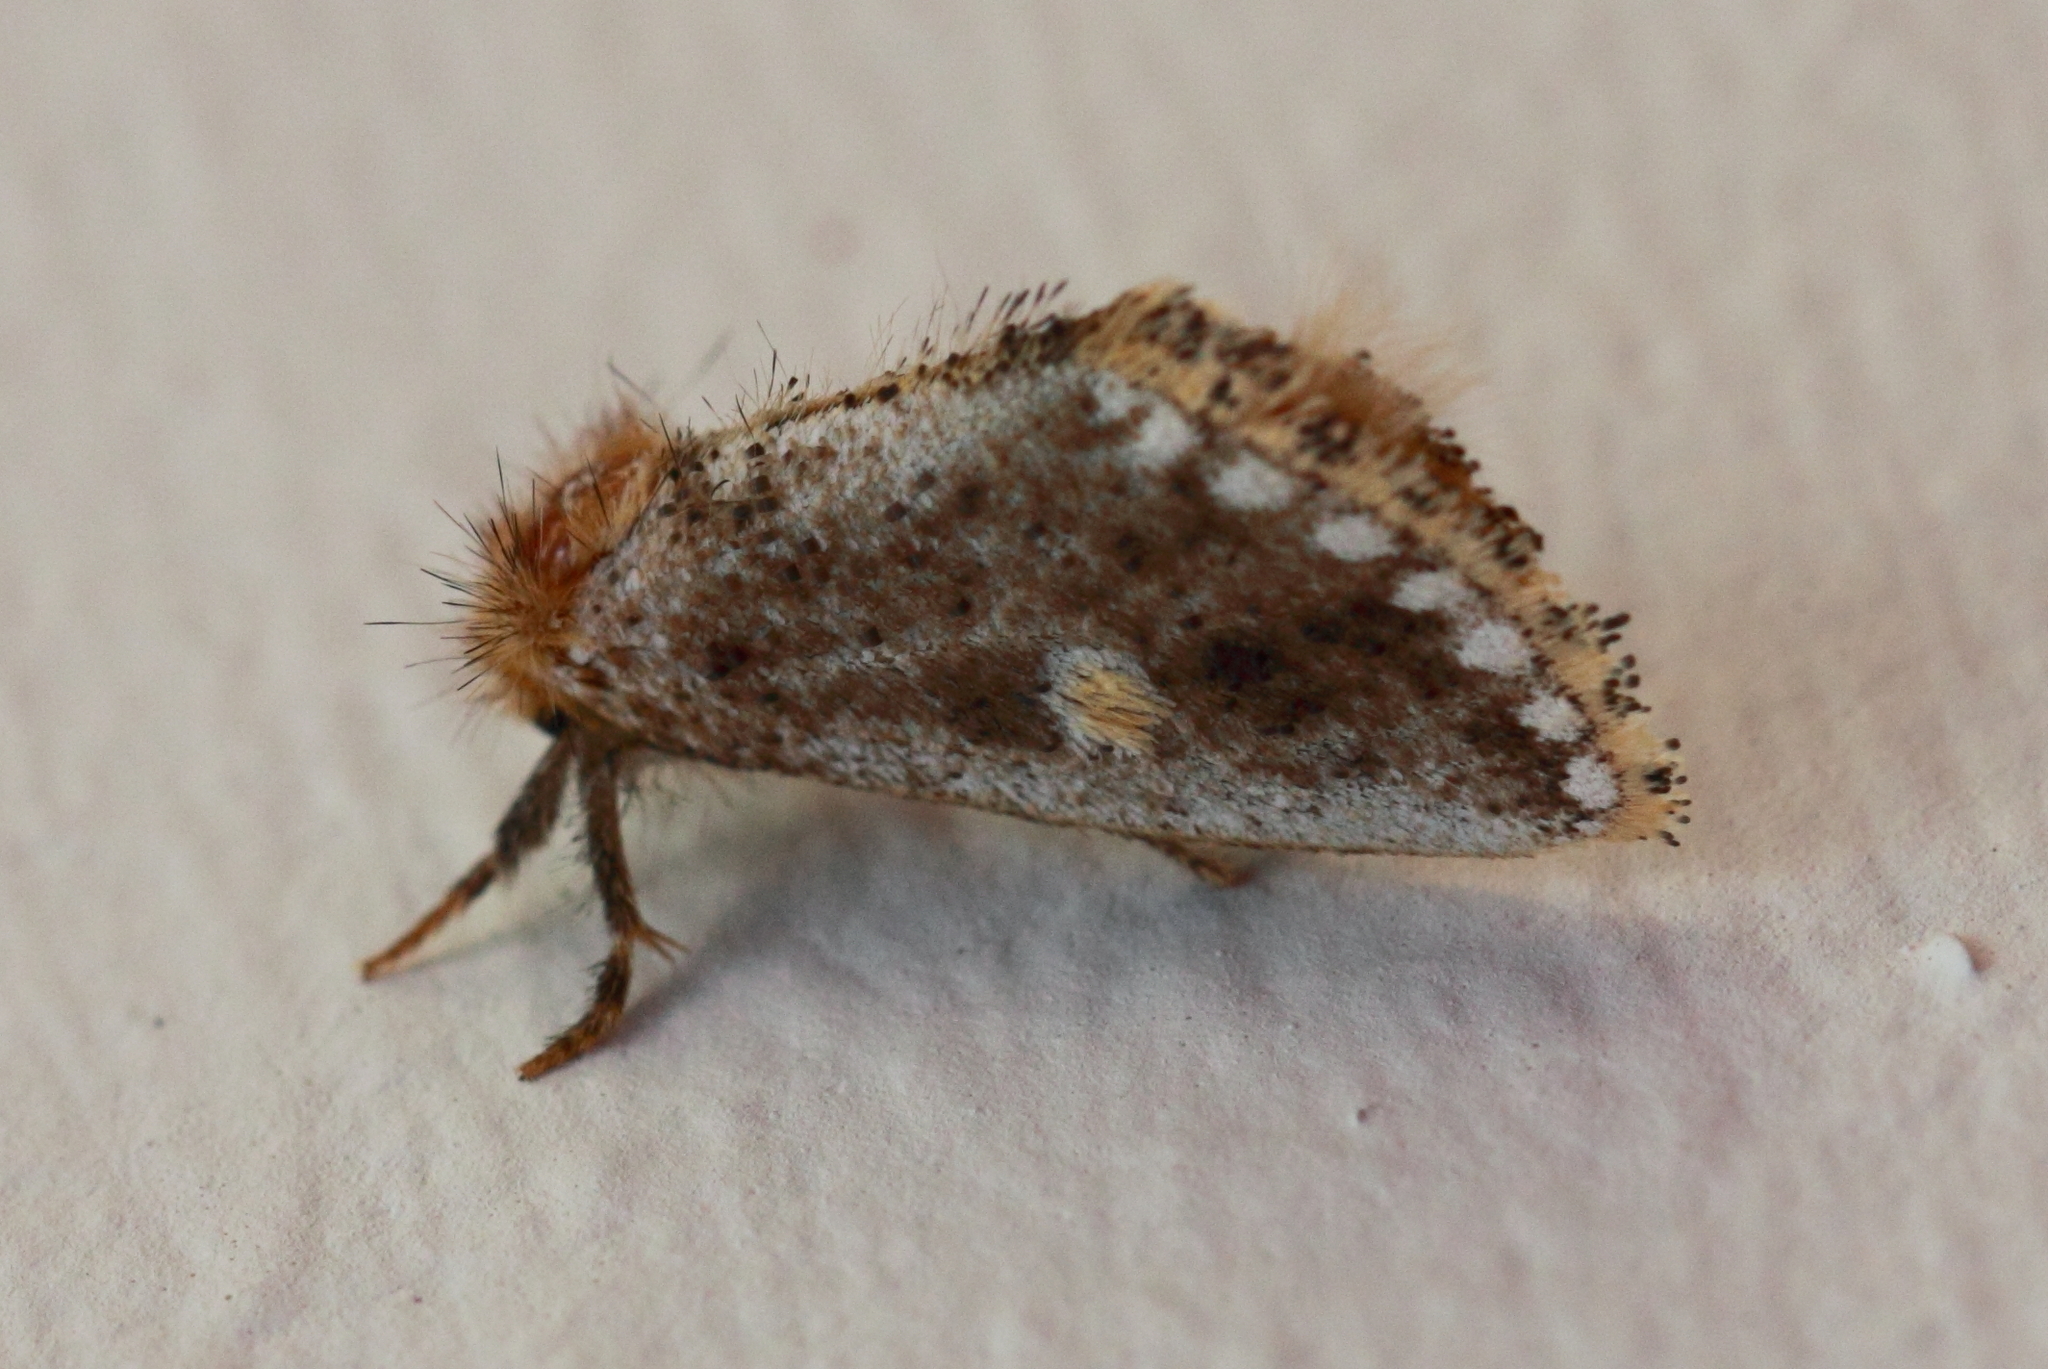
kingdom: Animalia
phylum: Arthropoda
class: Insecta
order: Lepidoptera
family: Notodontidae
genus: Epicoma
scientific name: Epicoma protrahens
